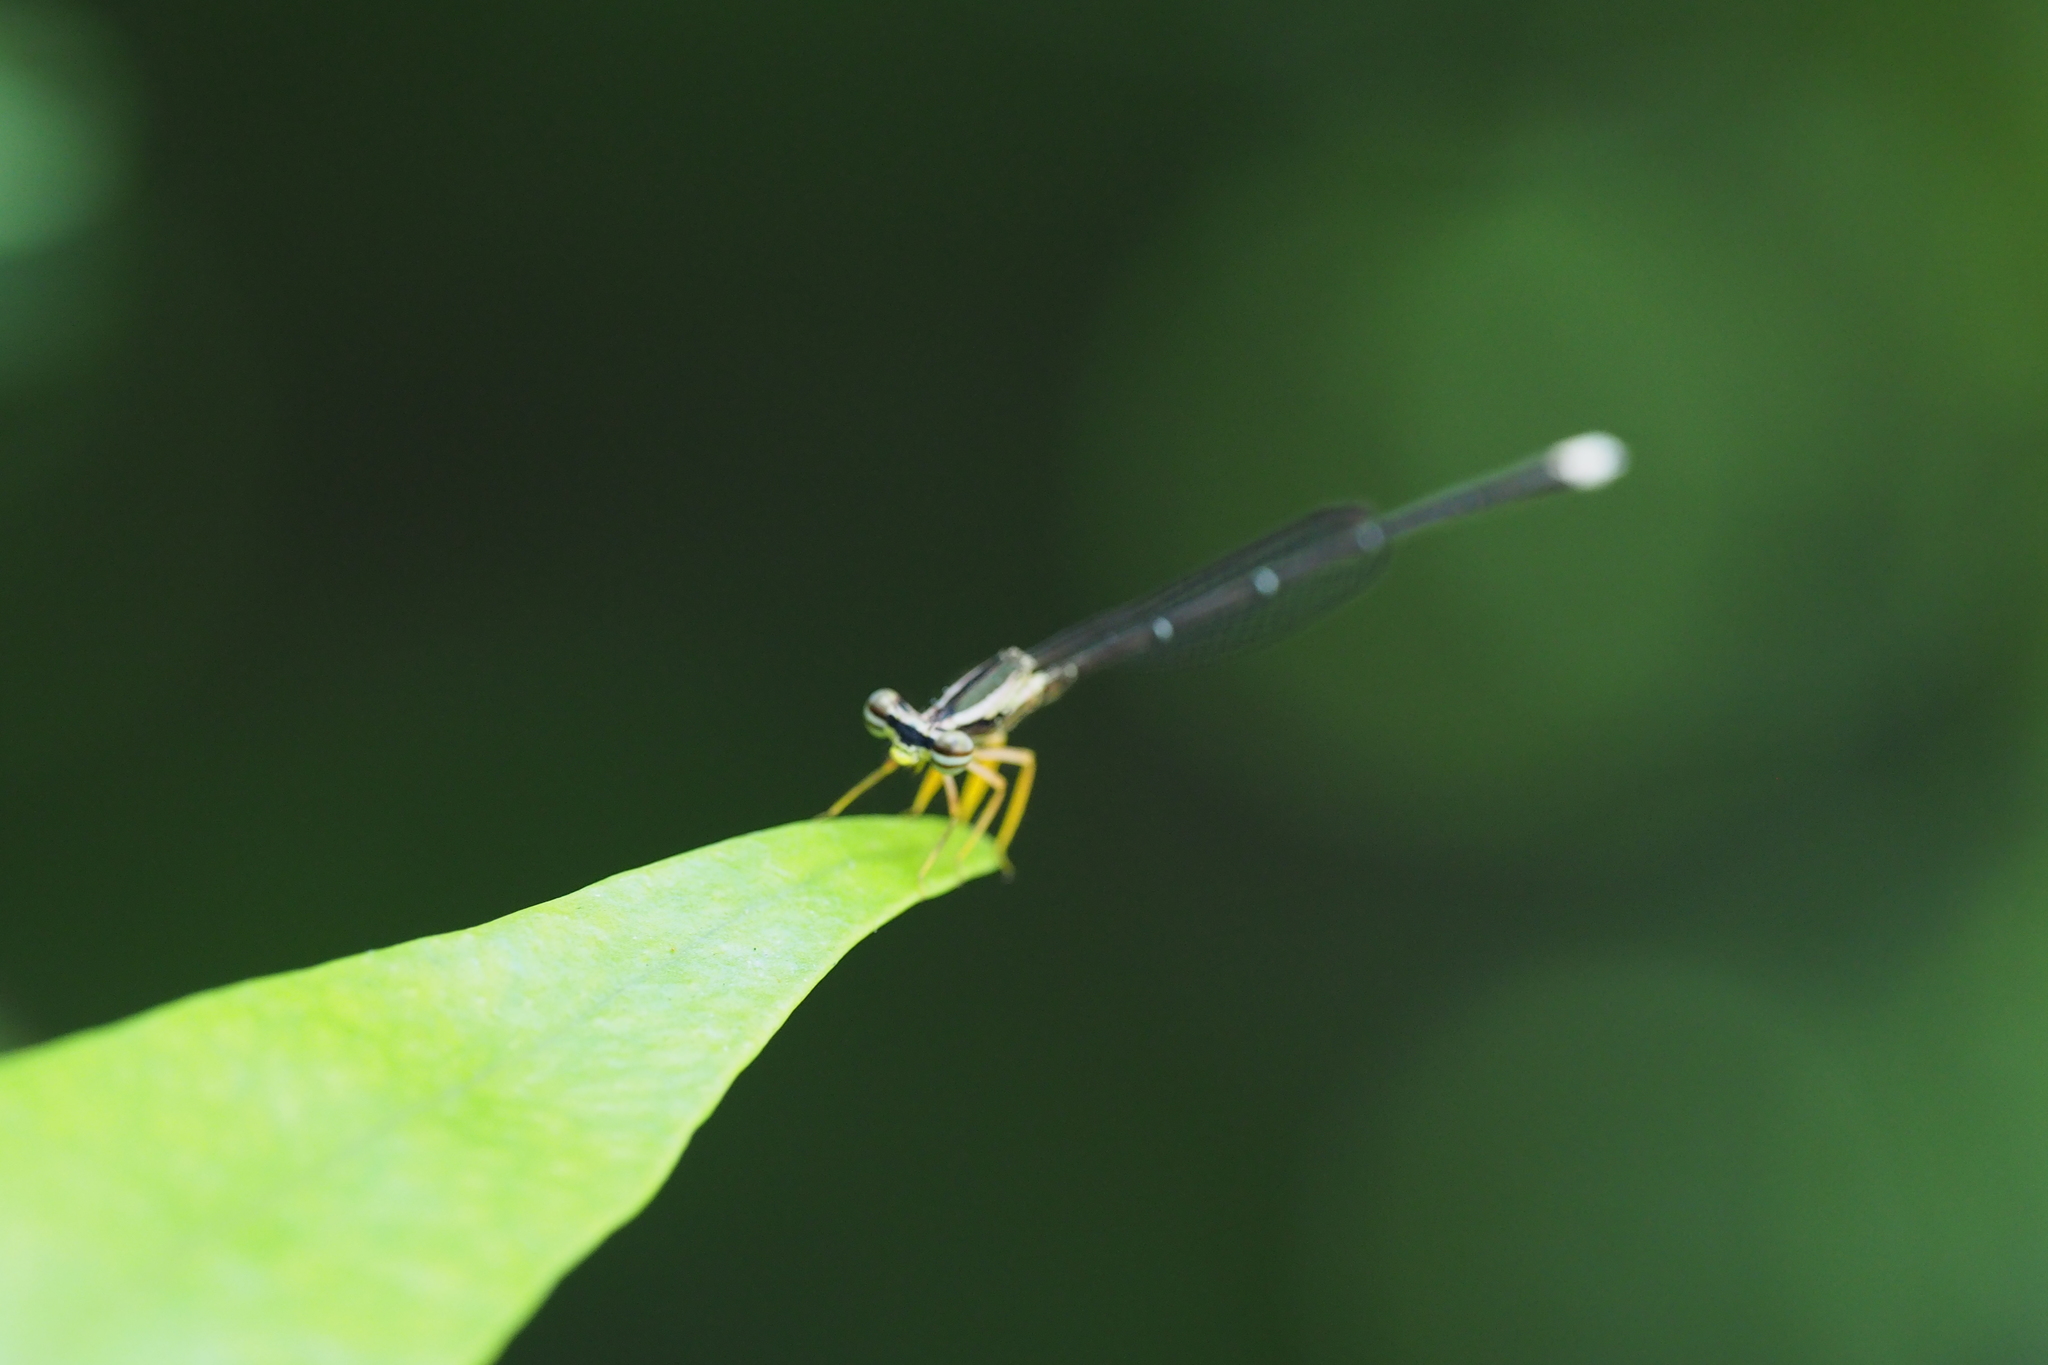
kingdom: Animalia
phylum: Arthropoda
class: Insecta
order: Odonata
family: Platycnemididae
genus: Copera
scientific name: Copera marginipes
